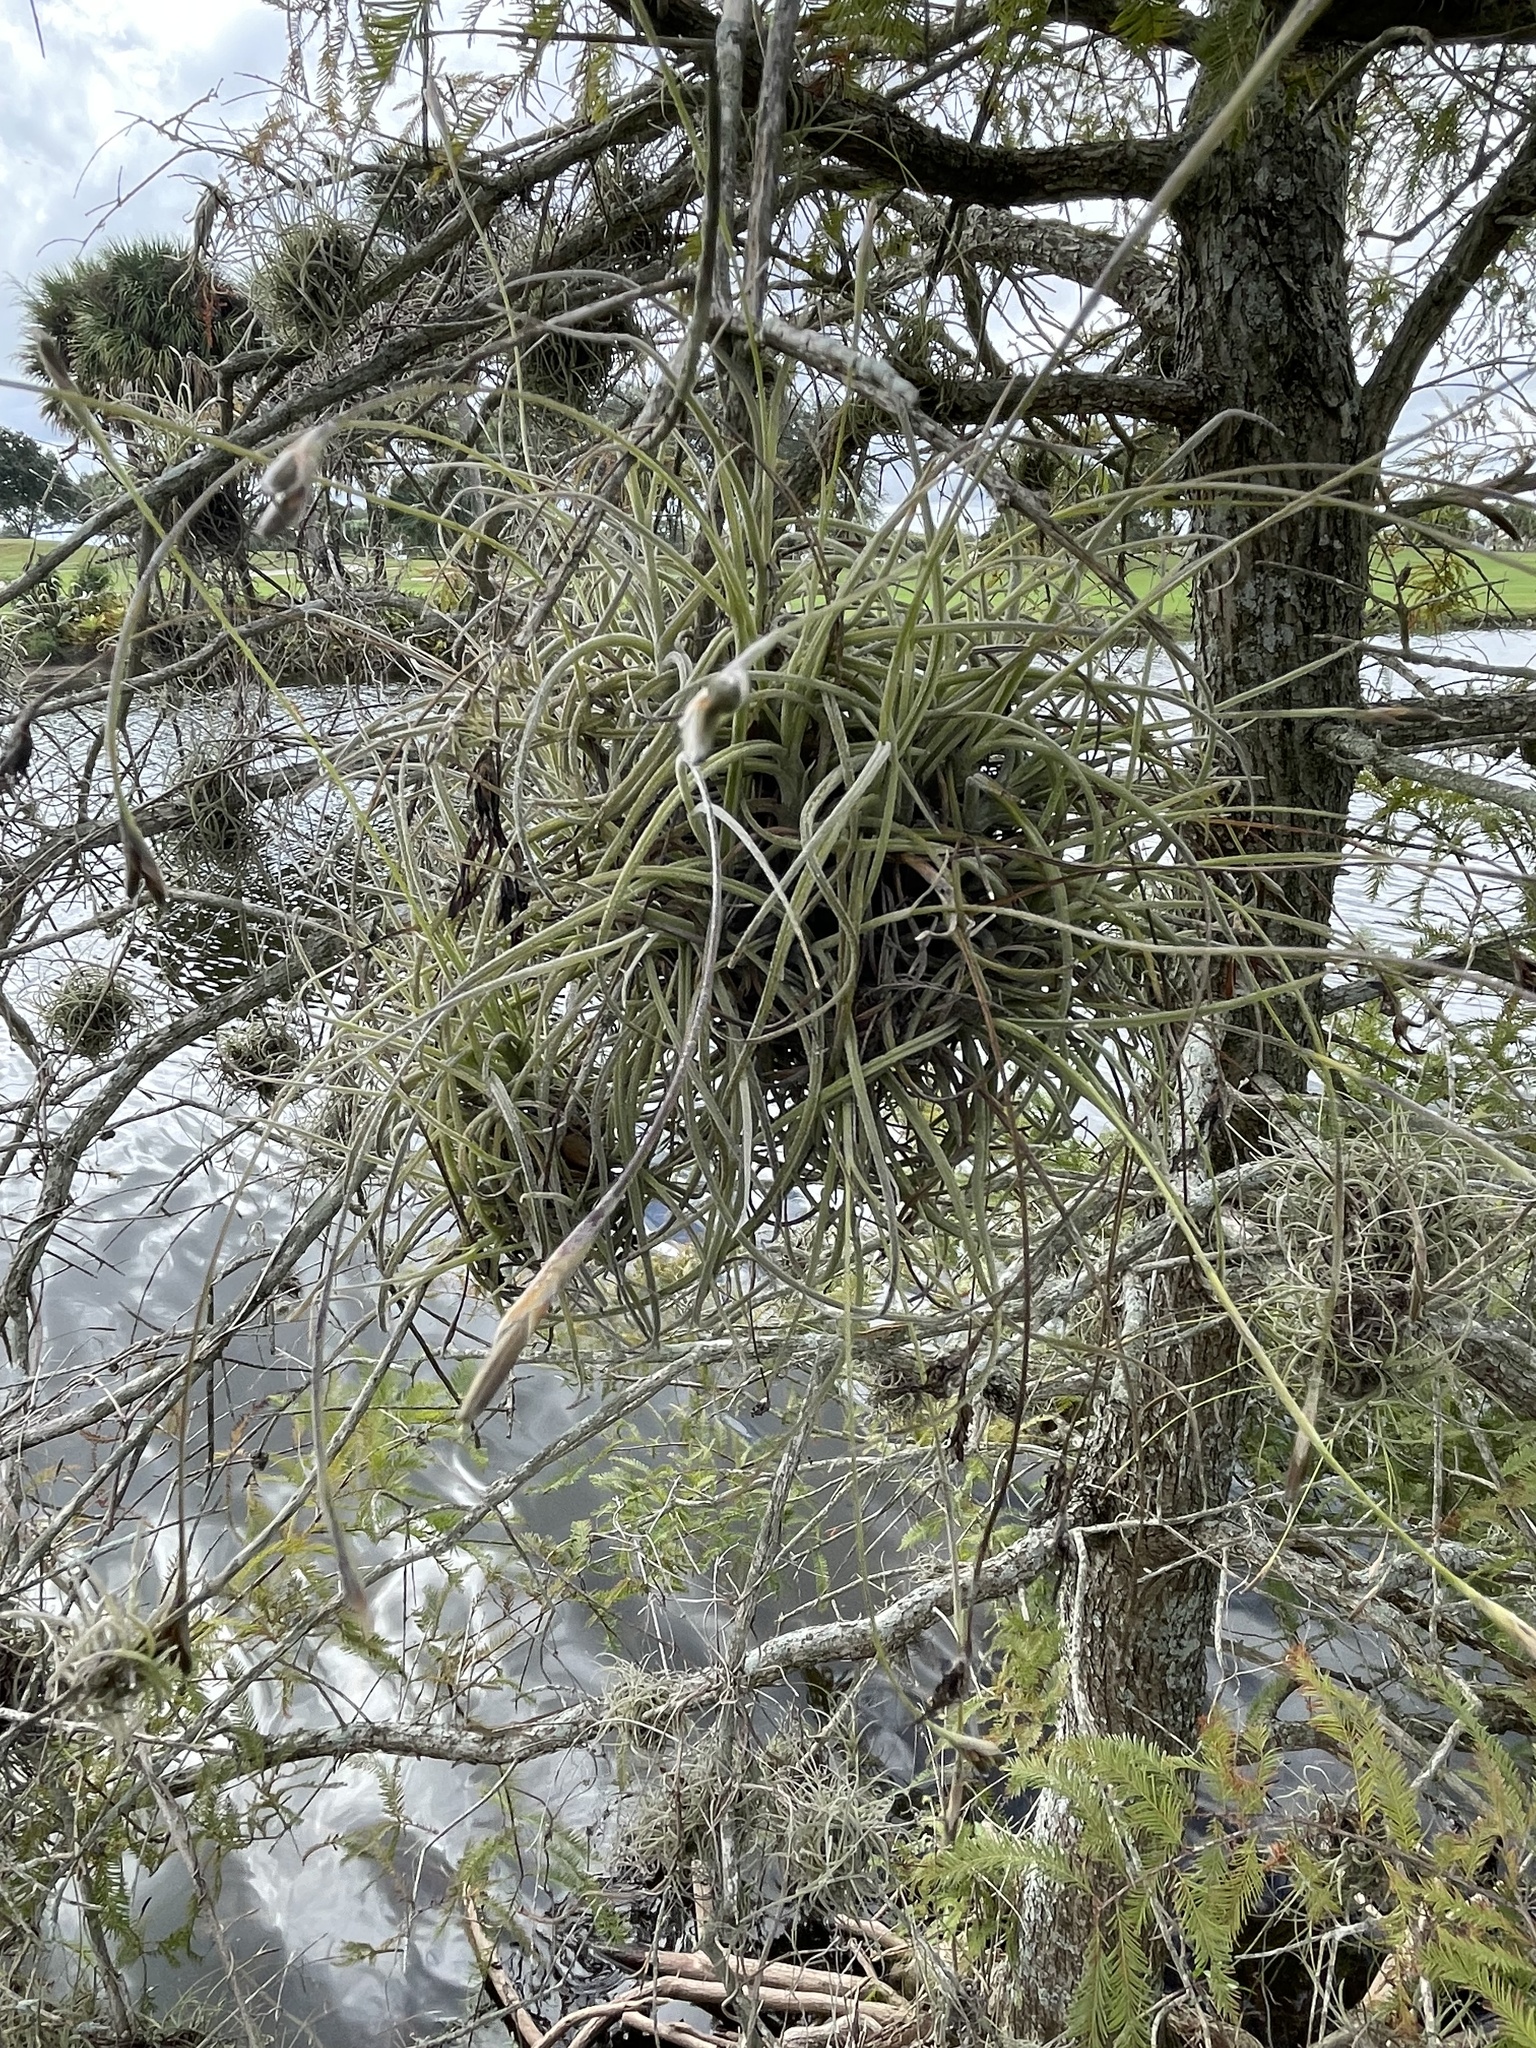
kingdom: Plantae
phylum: Tracheophyta
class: Liliopsida
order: Poales
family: Bromeliaceae
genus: Tillandsia
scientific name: Tillandsia recurvata
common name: Small ballmoss
